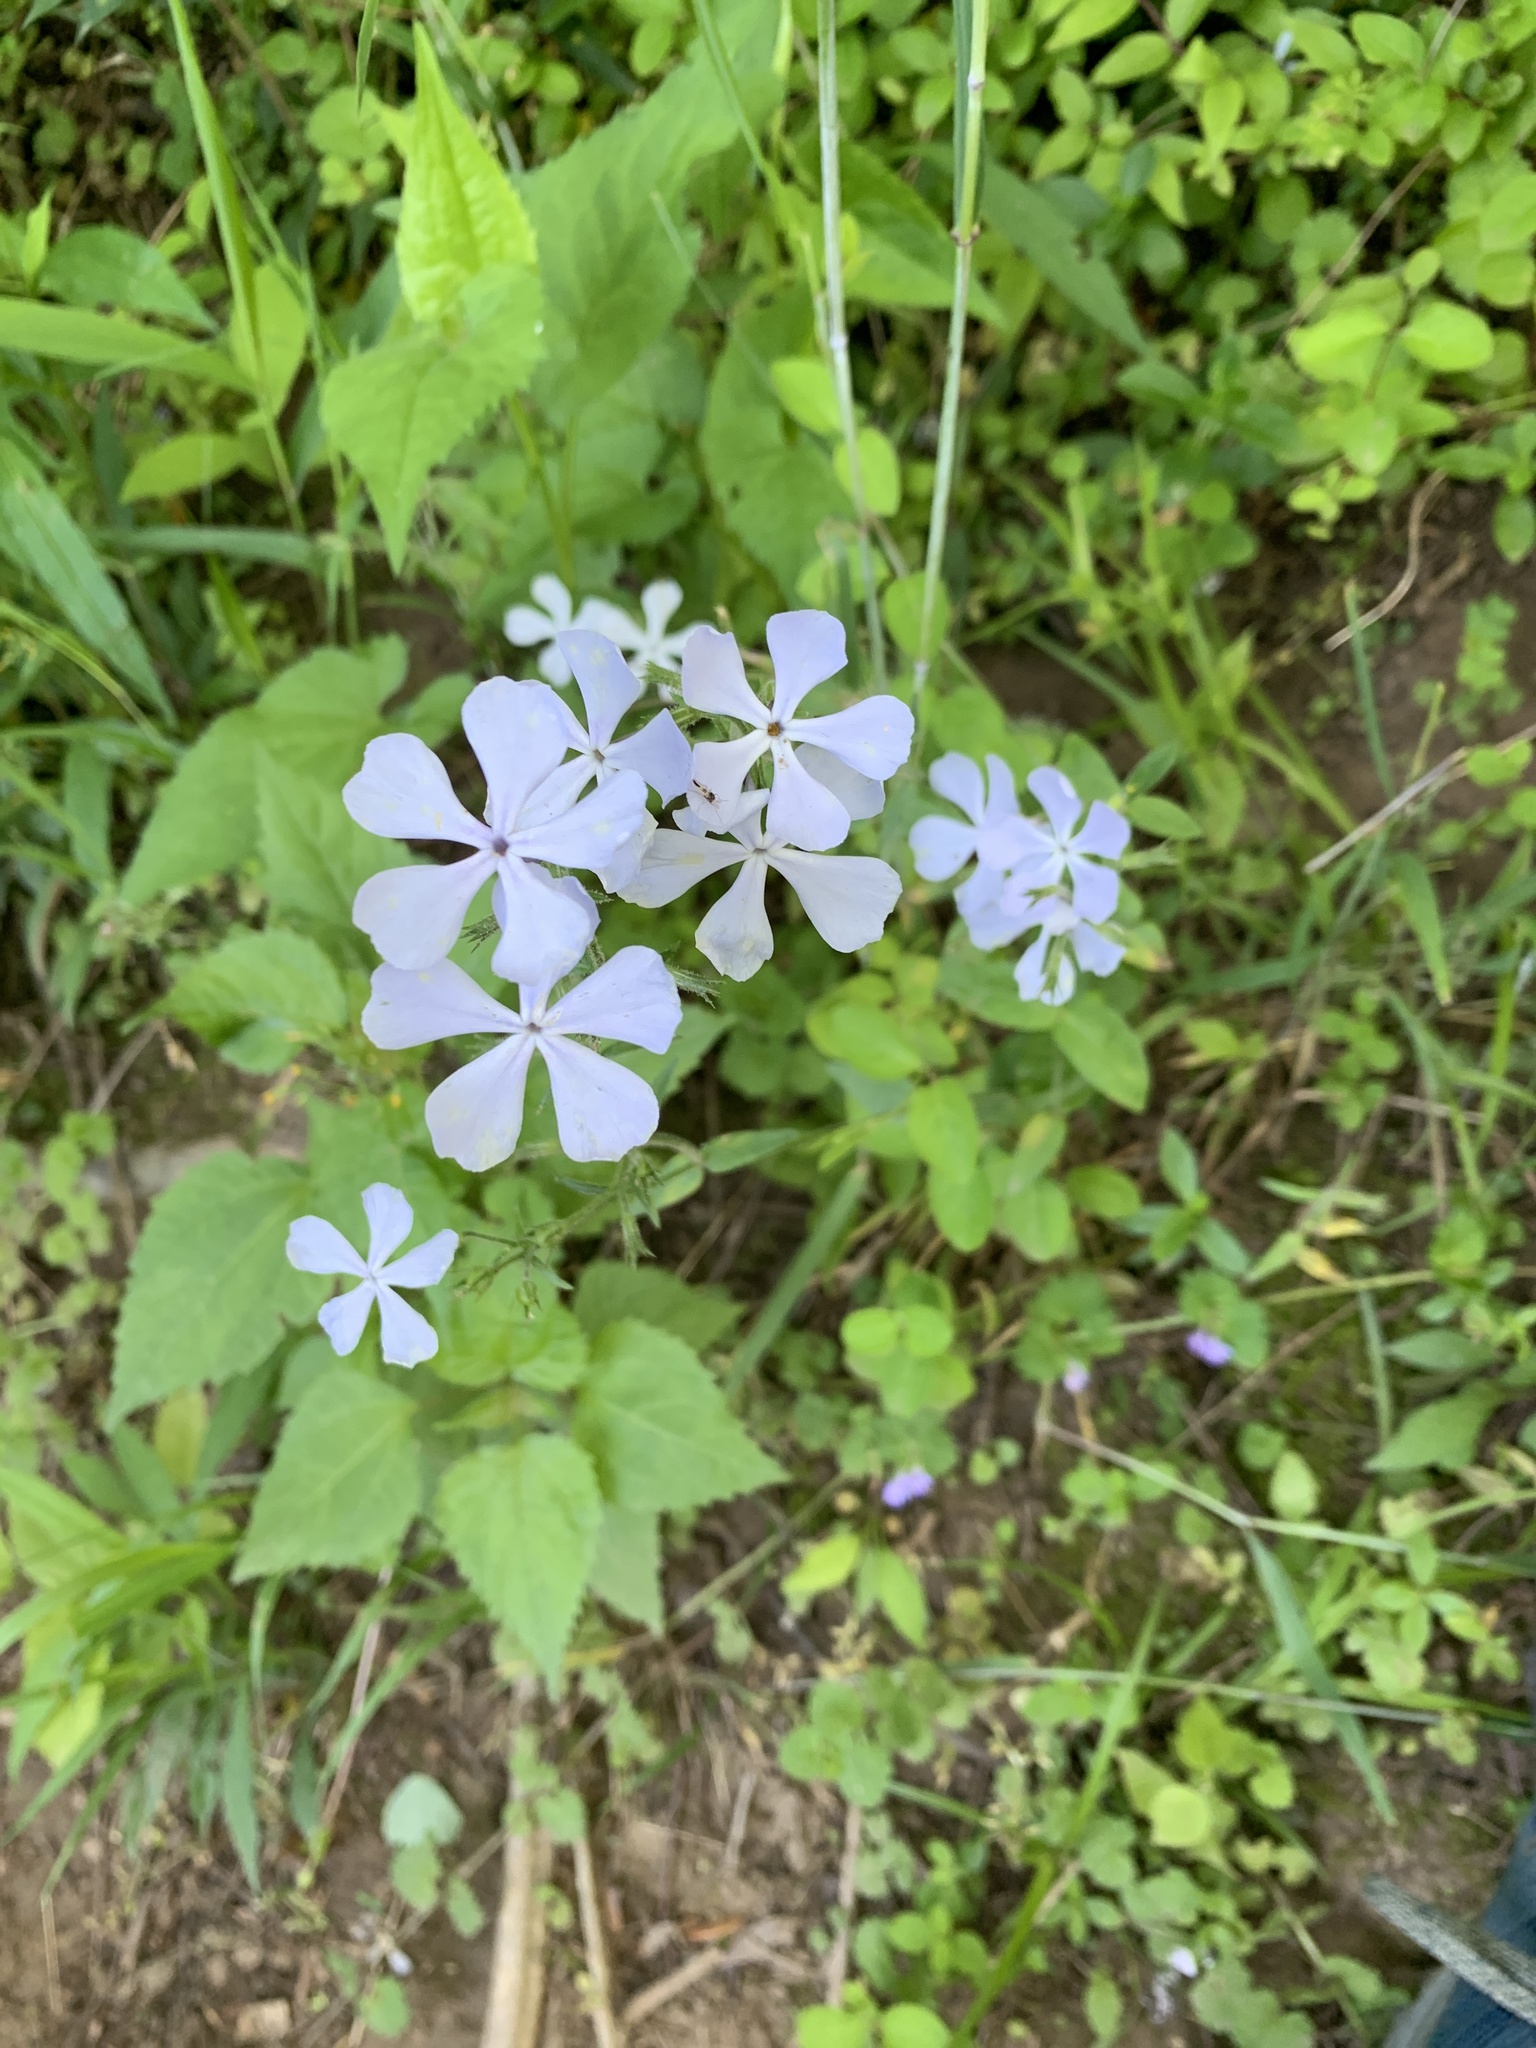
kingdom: Plantae
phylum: Tracheophyta
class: Magnoliopsida
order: Ericales
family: Polemoniaceae
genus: Phlox
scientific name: Phlox divaricata
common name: Blue phlox
